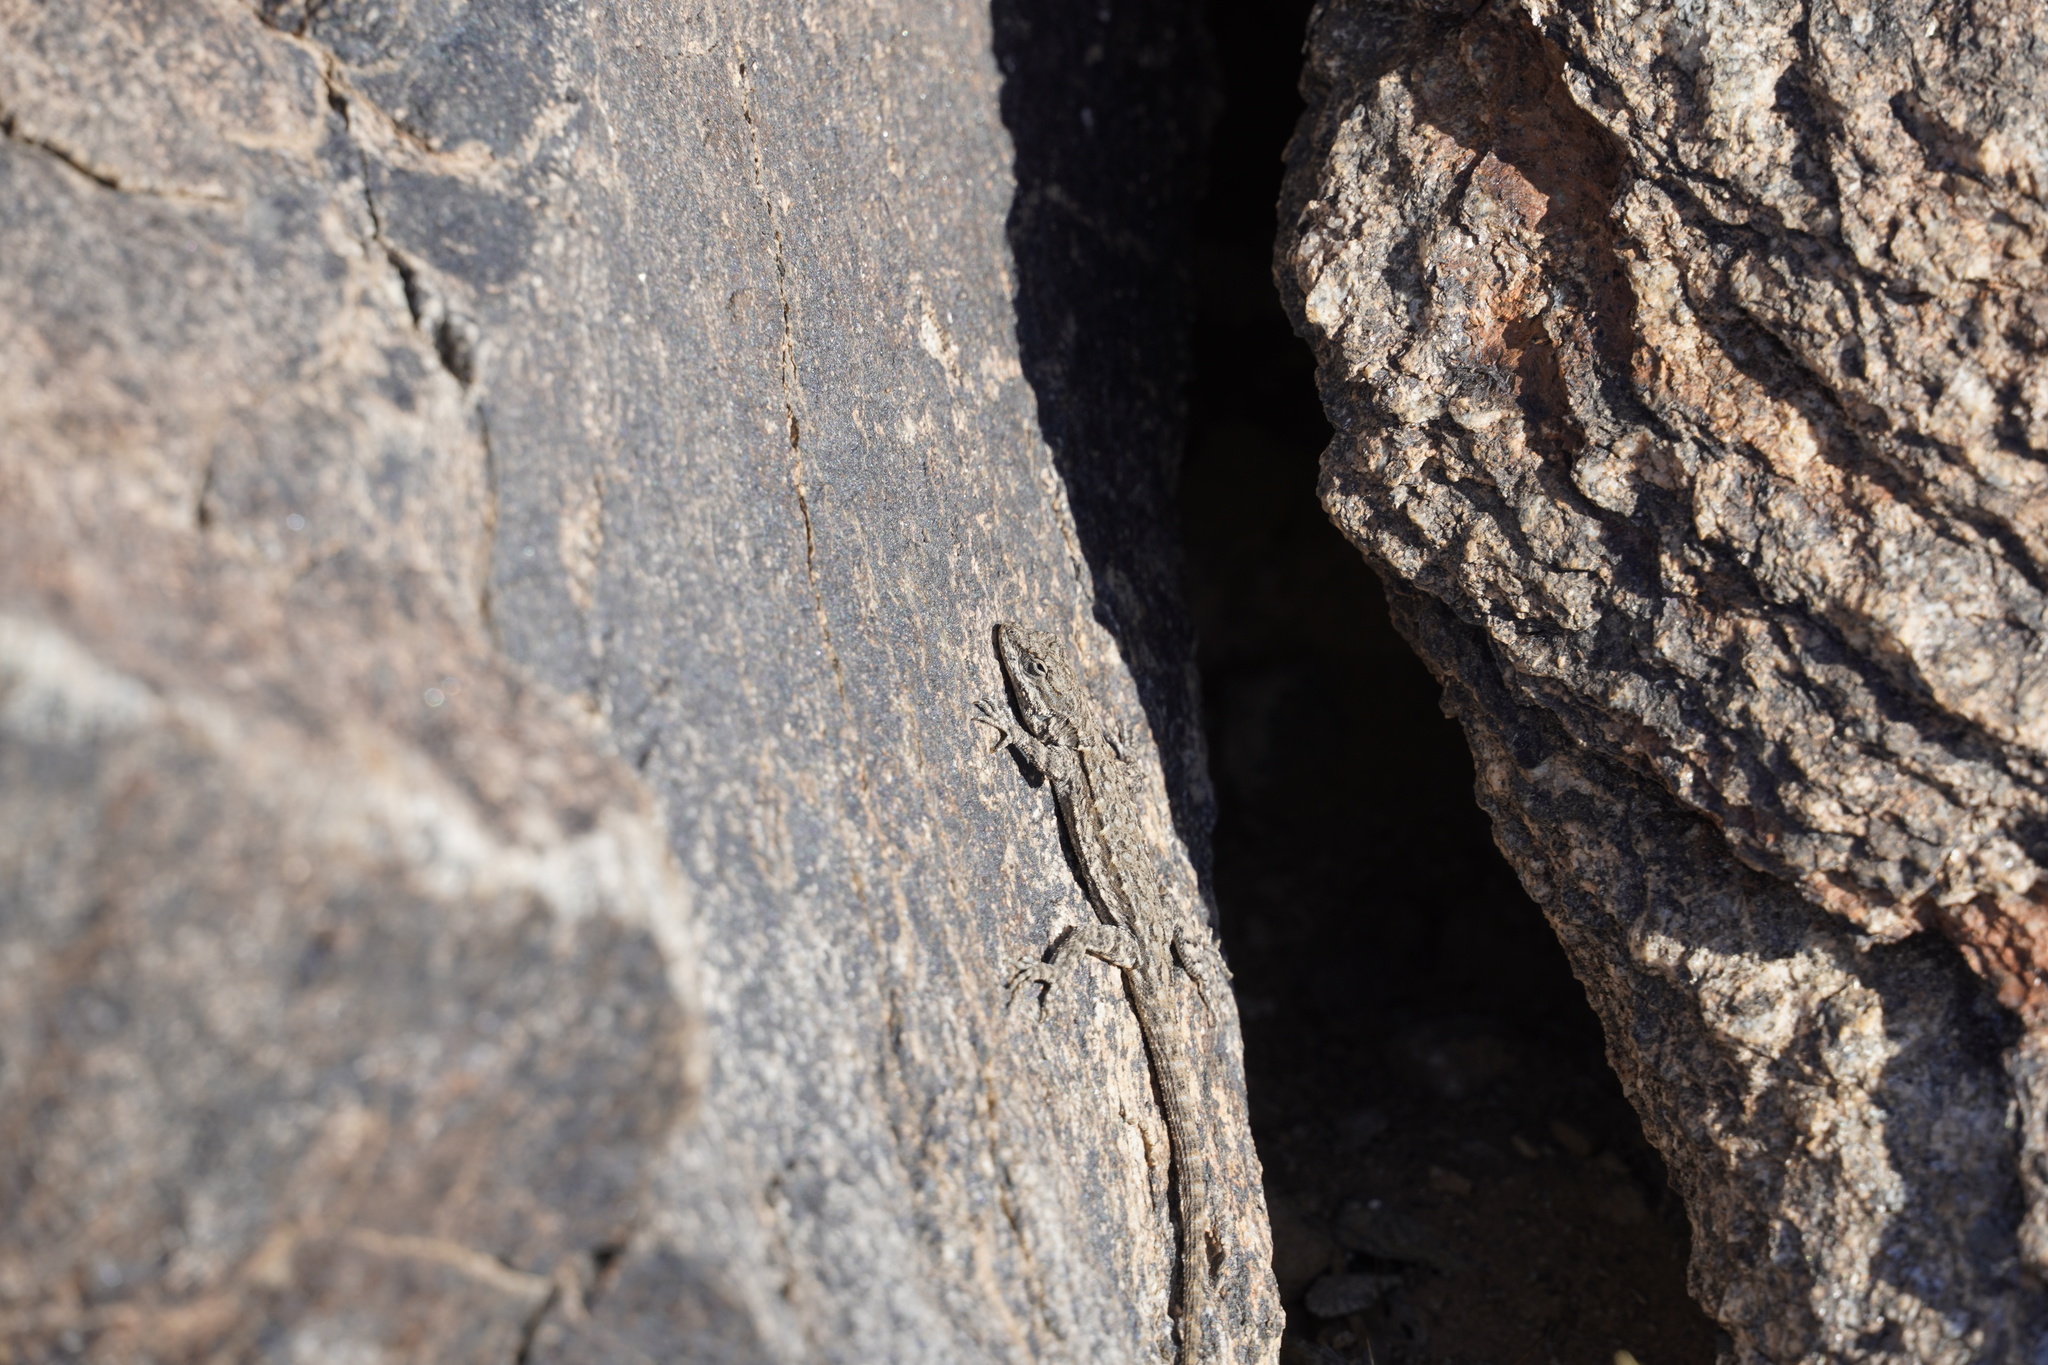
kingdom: Animalia
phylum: Chordata
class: Squamata
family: Phrynosomatidae
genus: Urosaurus
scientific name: Urosaurus ornatus
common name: Ornate tree lizard
